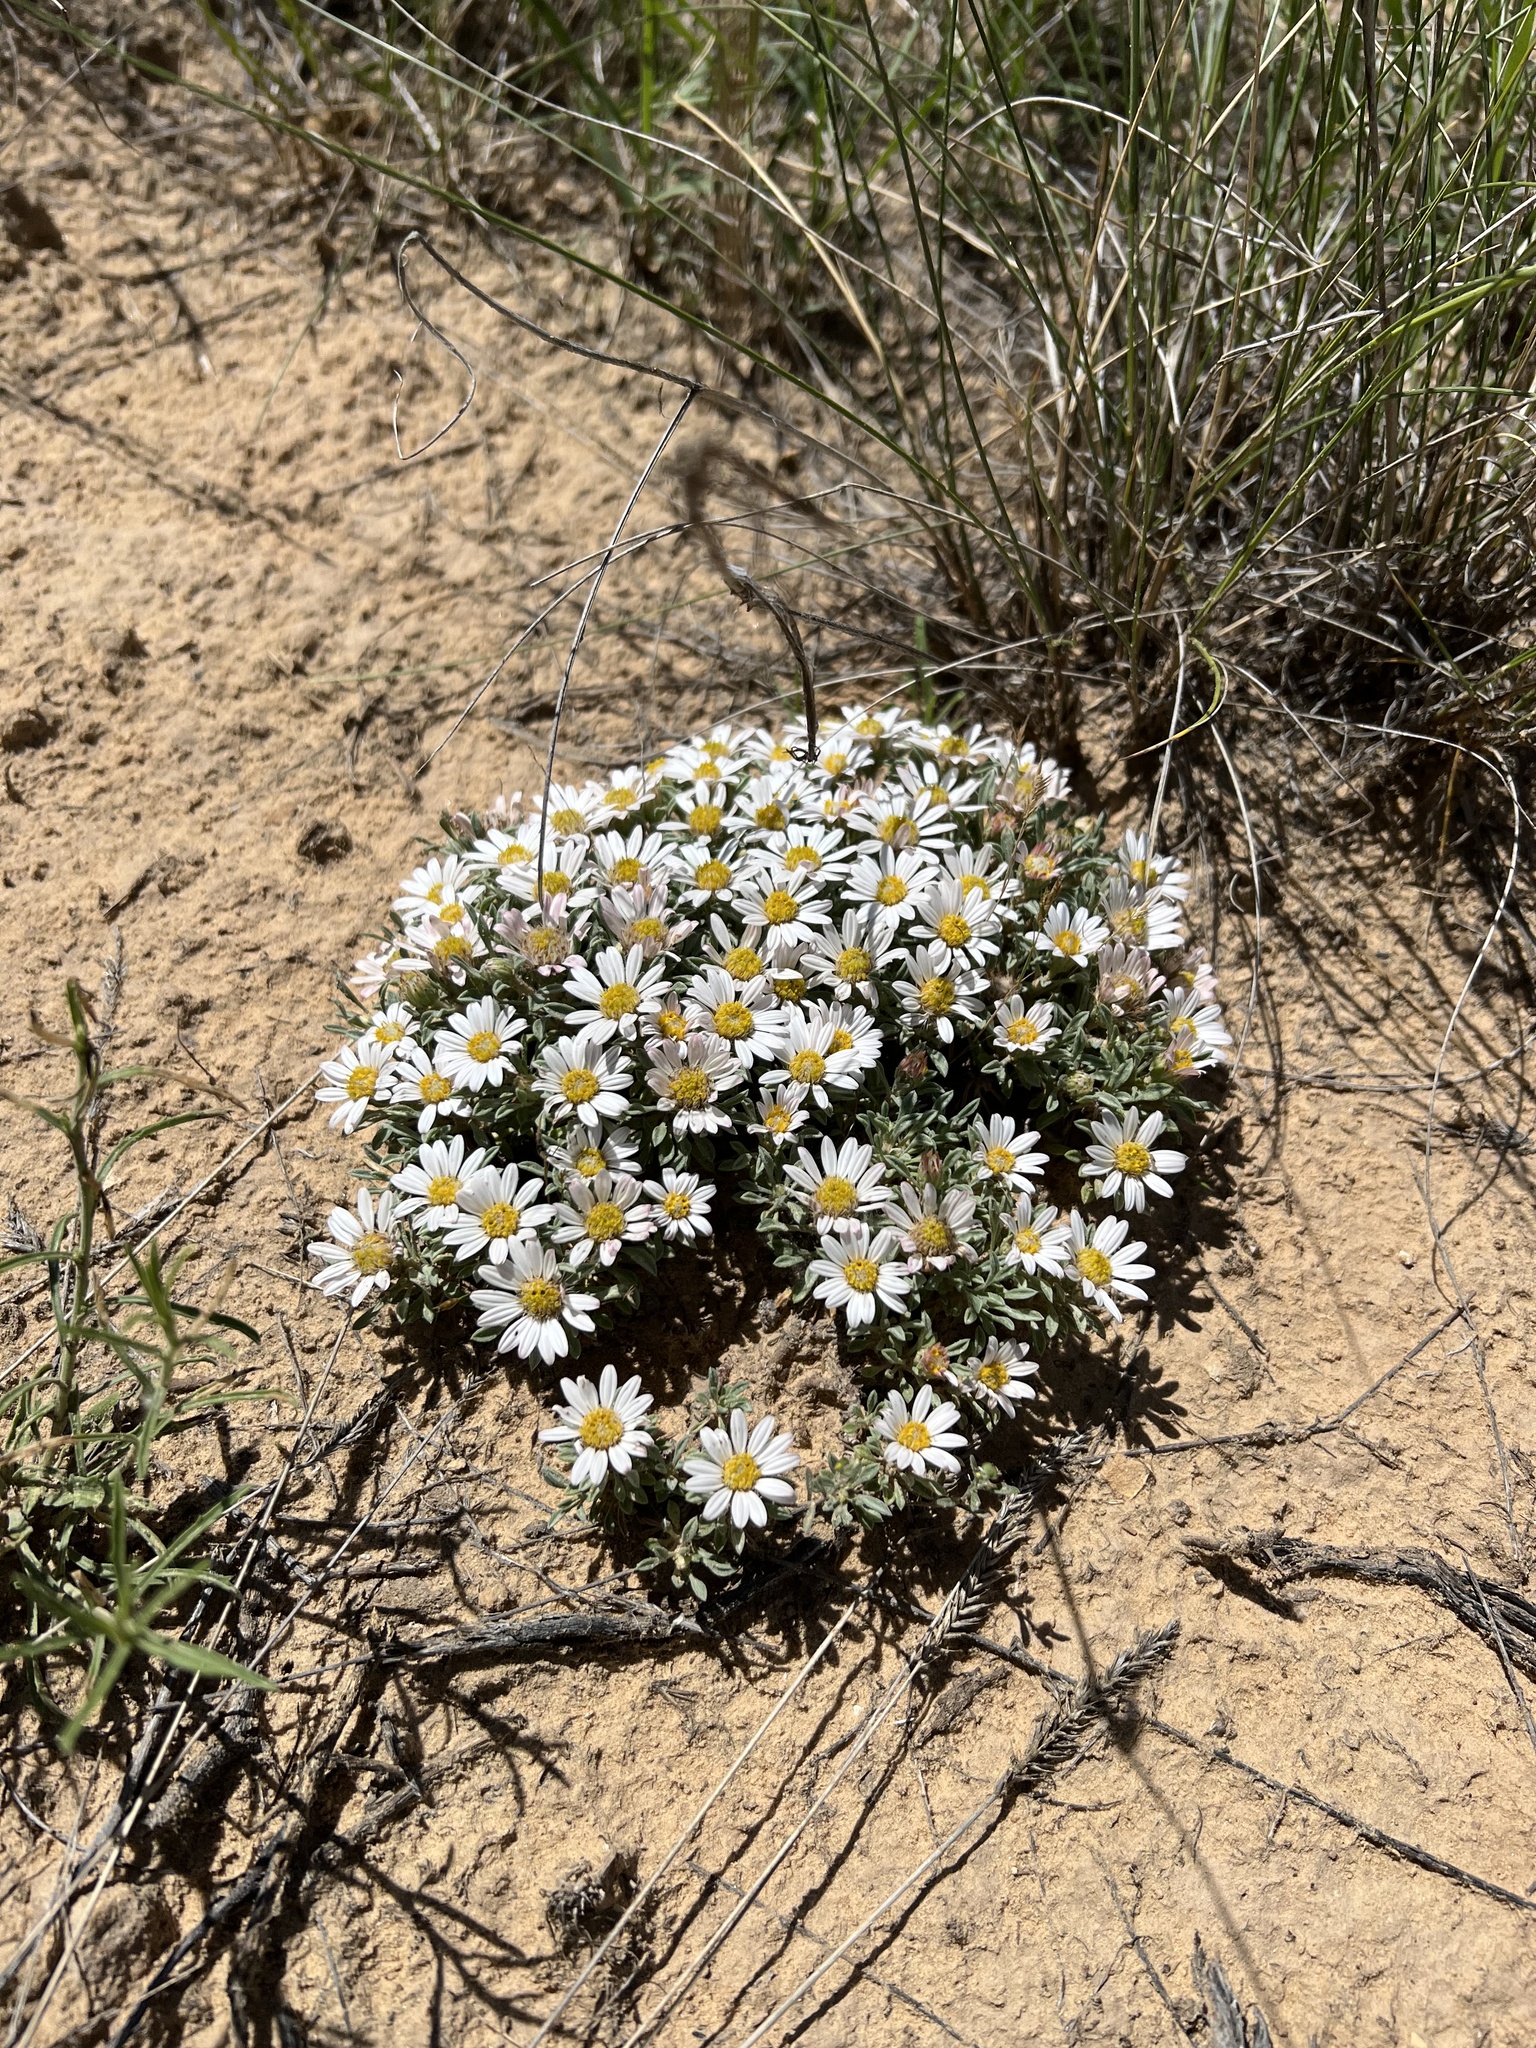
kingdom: Plantae
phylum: Tracheophyta
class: Magnoliopsida
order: Asterales
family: Asteraceae
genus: Townsendia
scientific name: Townsendia incana
